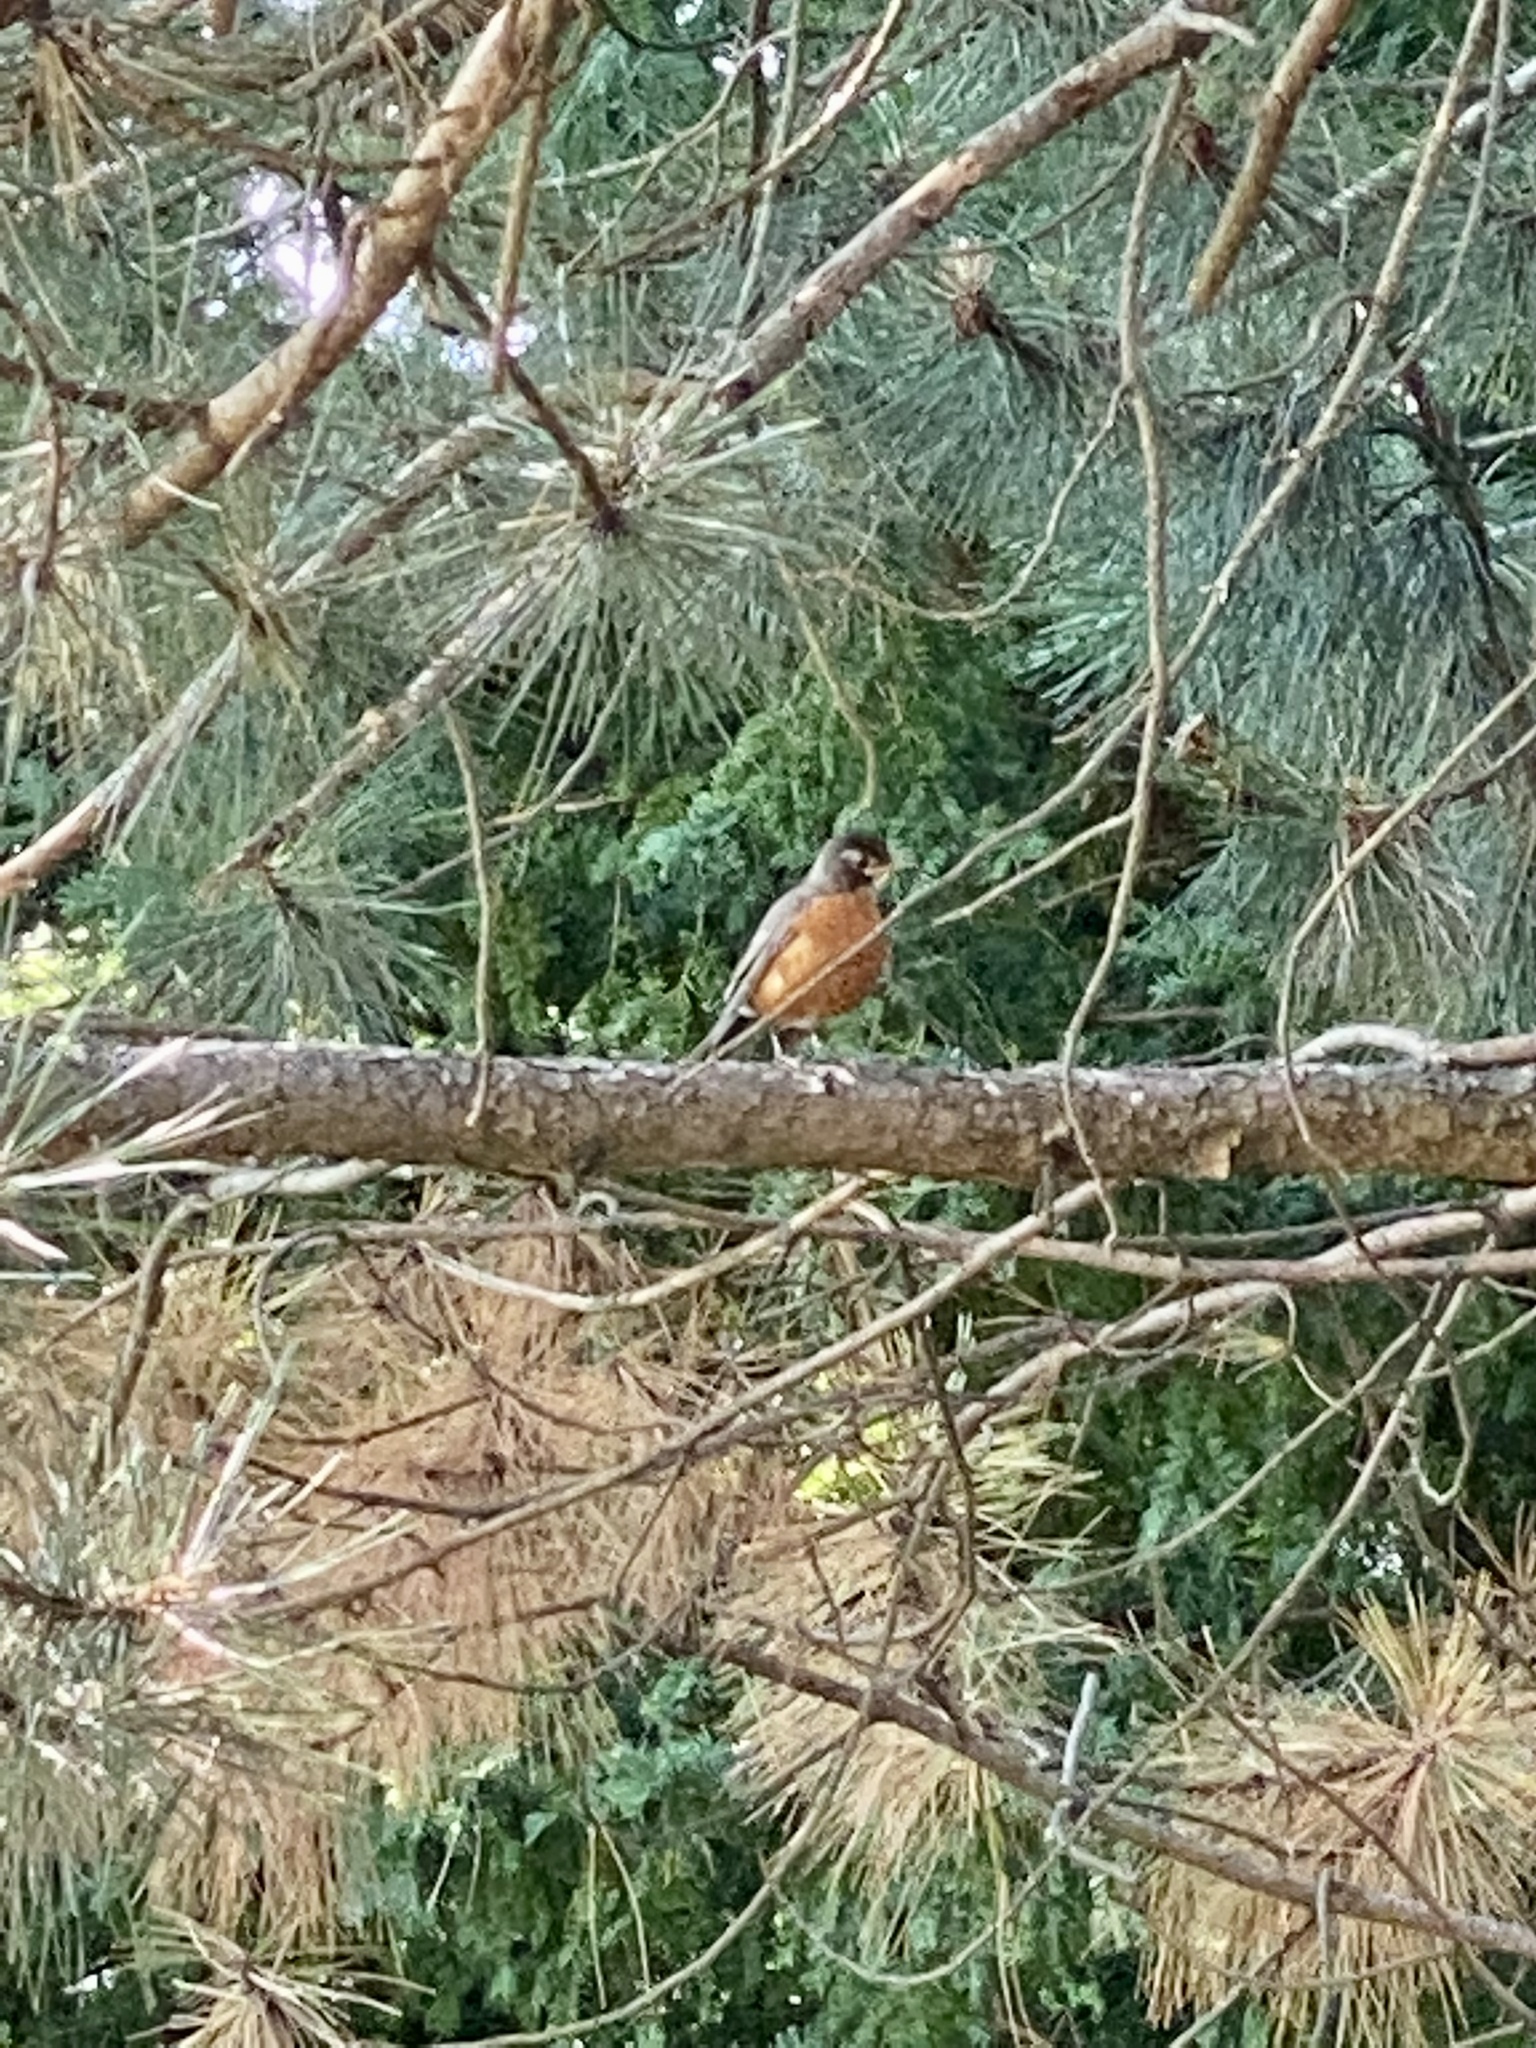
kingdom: Animalia
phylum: Chordata
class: Aves
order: Passeriformes
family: Turdidae
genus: Turdus
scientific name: Turdus migratorius
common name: American robin
